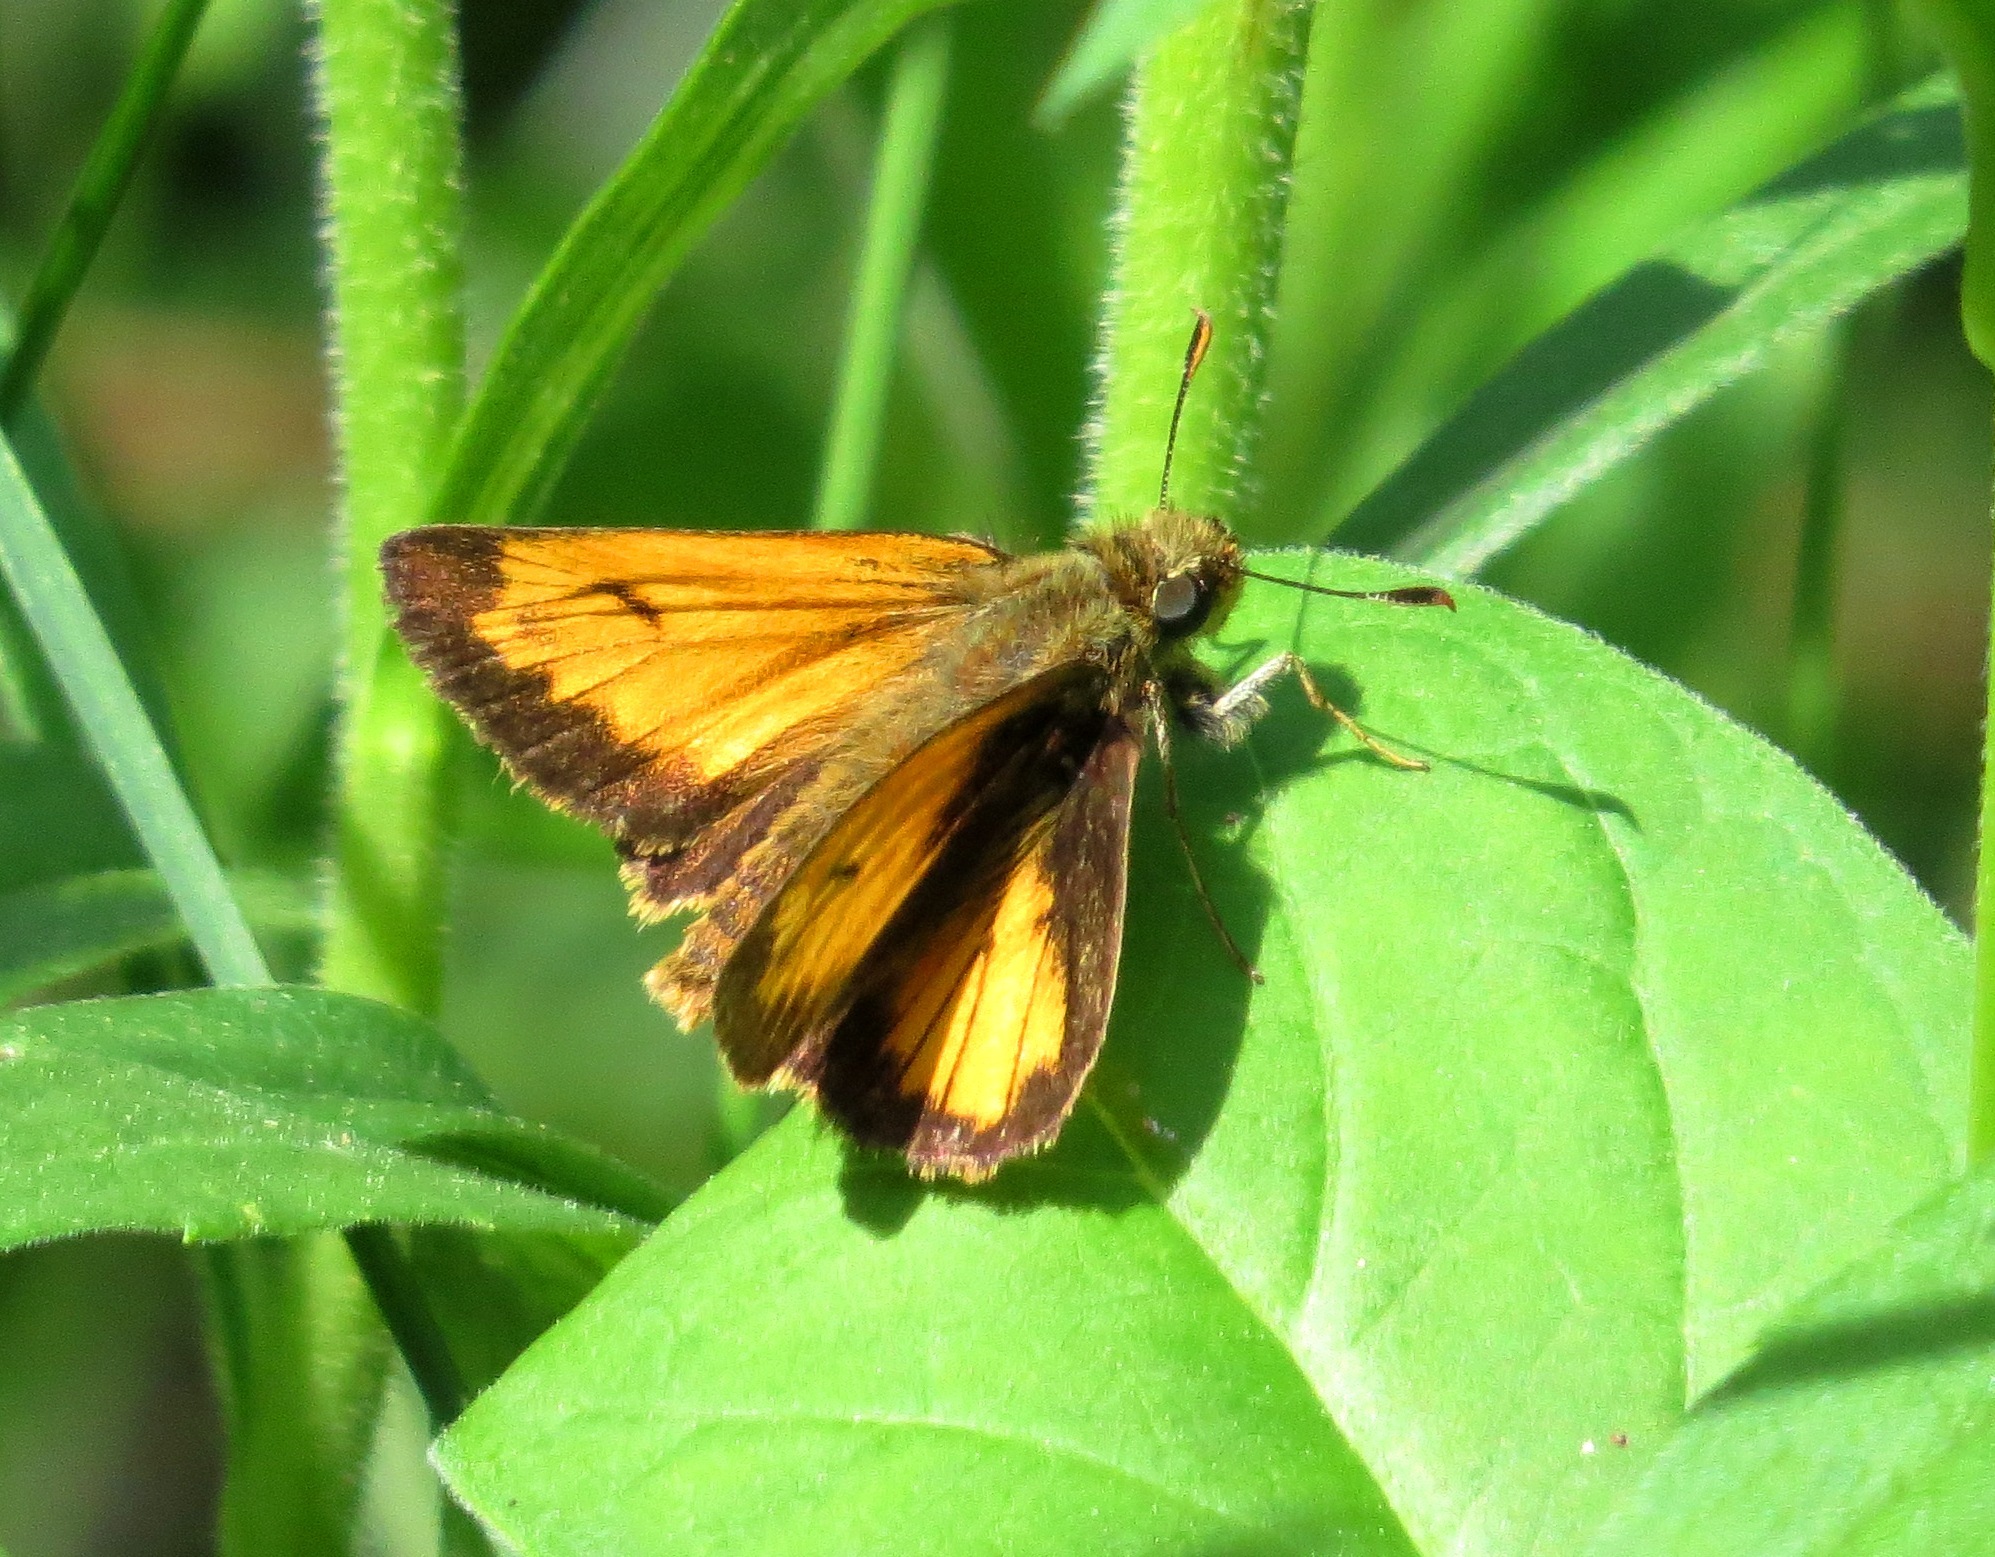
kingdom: Animalia
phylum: Arthropoda
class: Insecta
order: Lepidoptera
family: Hesperiidae
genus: Lon
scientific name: Lon hobomok
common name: Hobomok skipper
